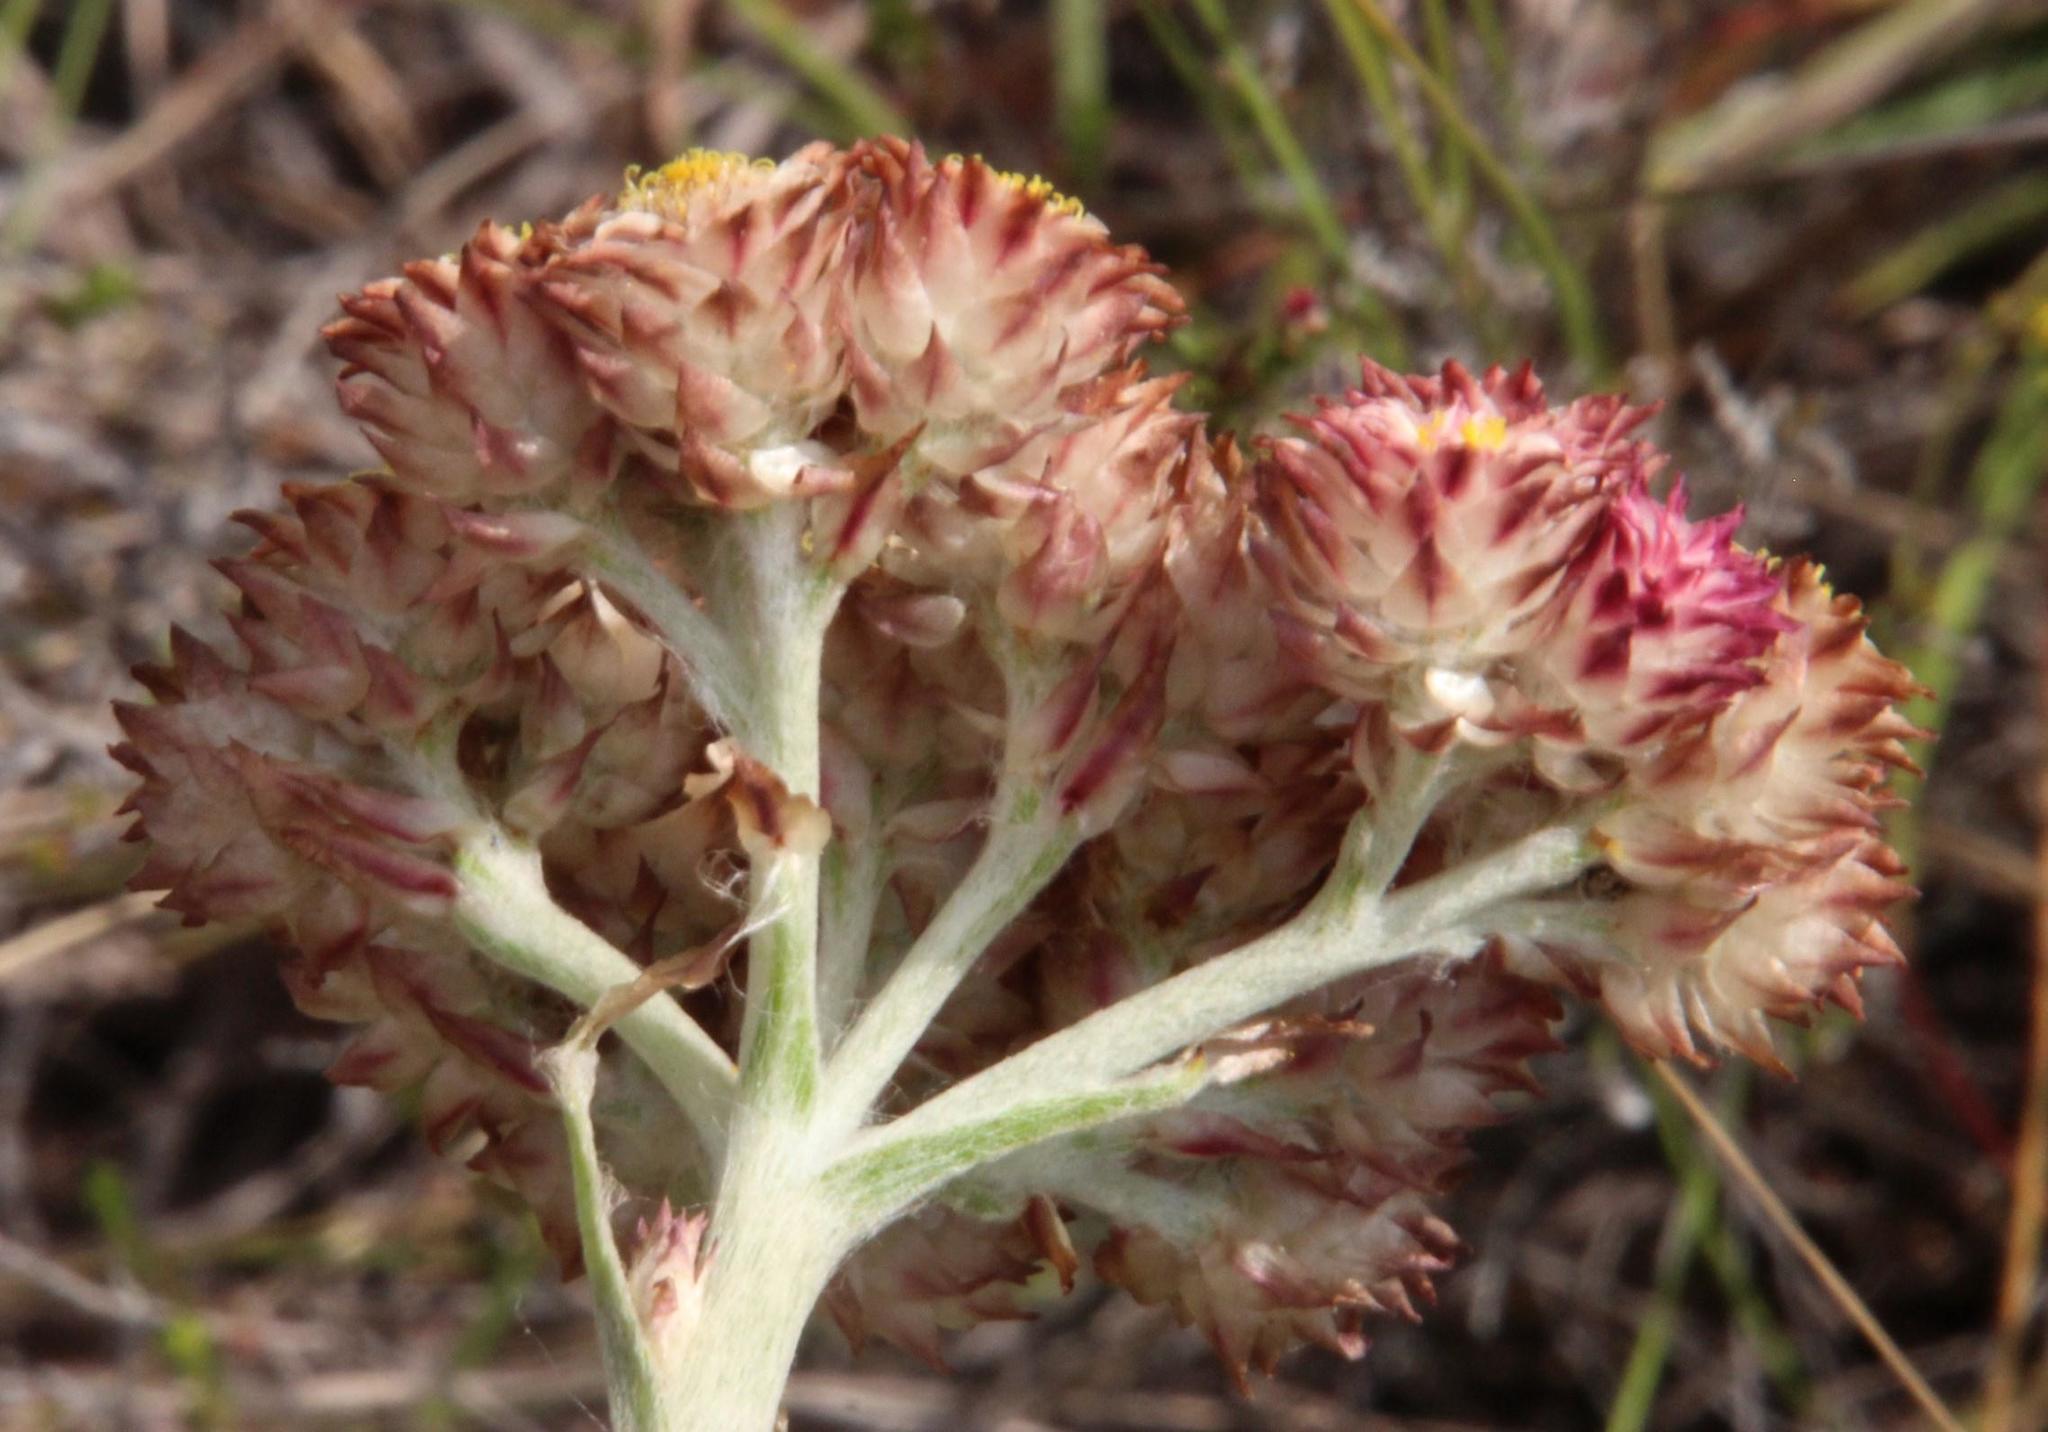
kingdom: Plantae
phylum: Tracheophyta
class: Magnoliopsida
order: Asterales
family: Asteraceae
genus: Helichrysum
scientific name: Helichrysum appendiculatum
